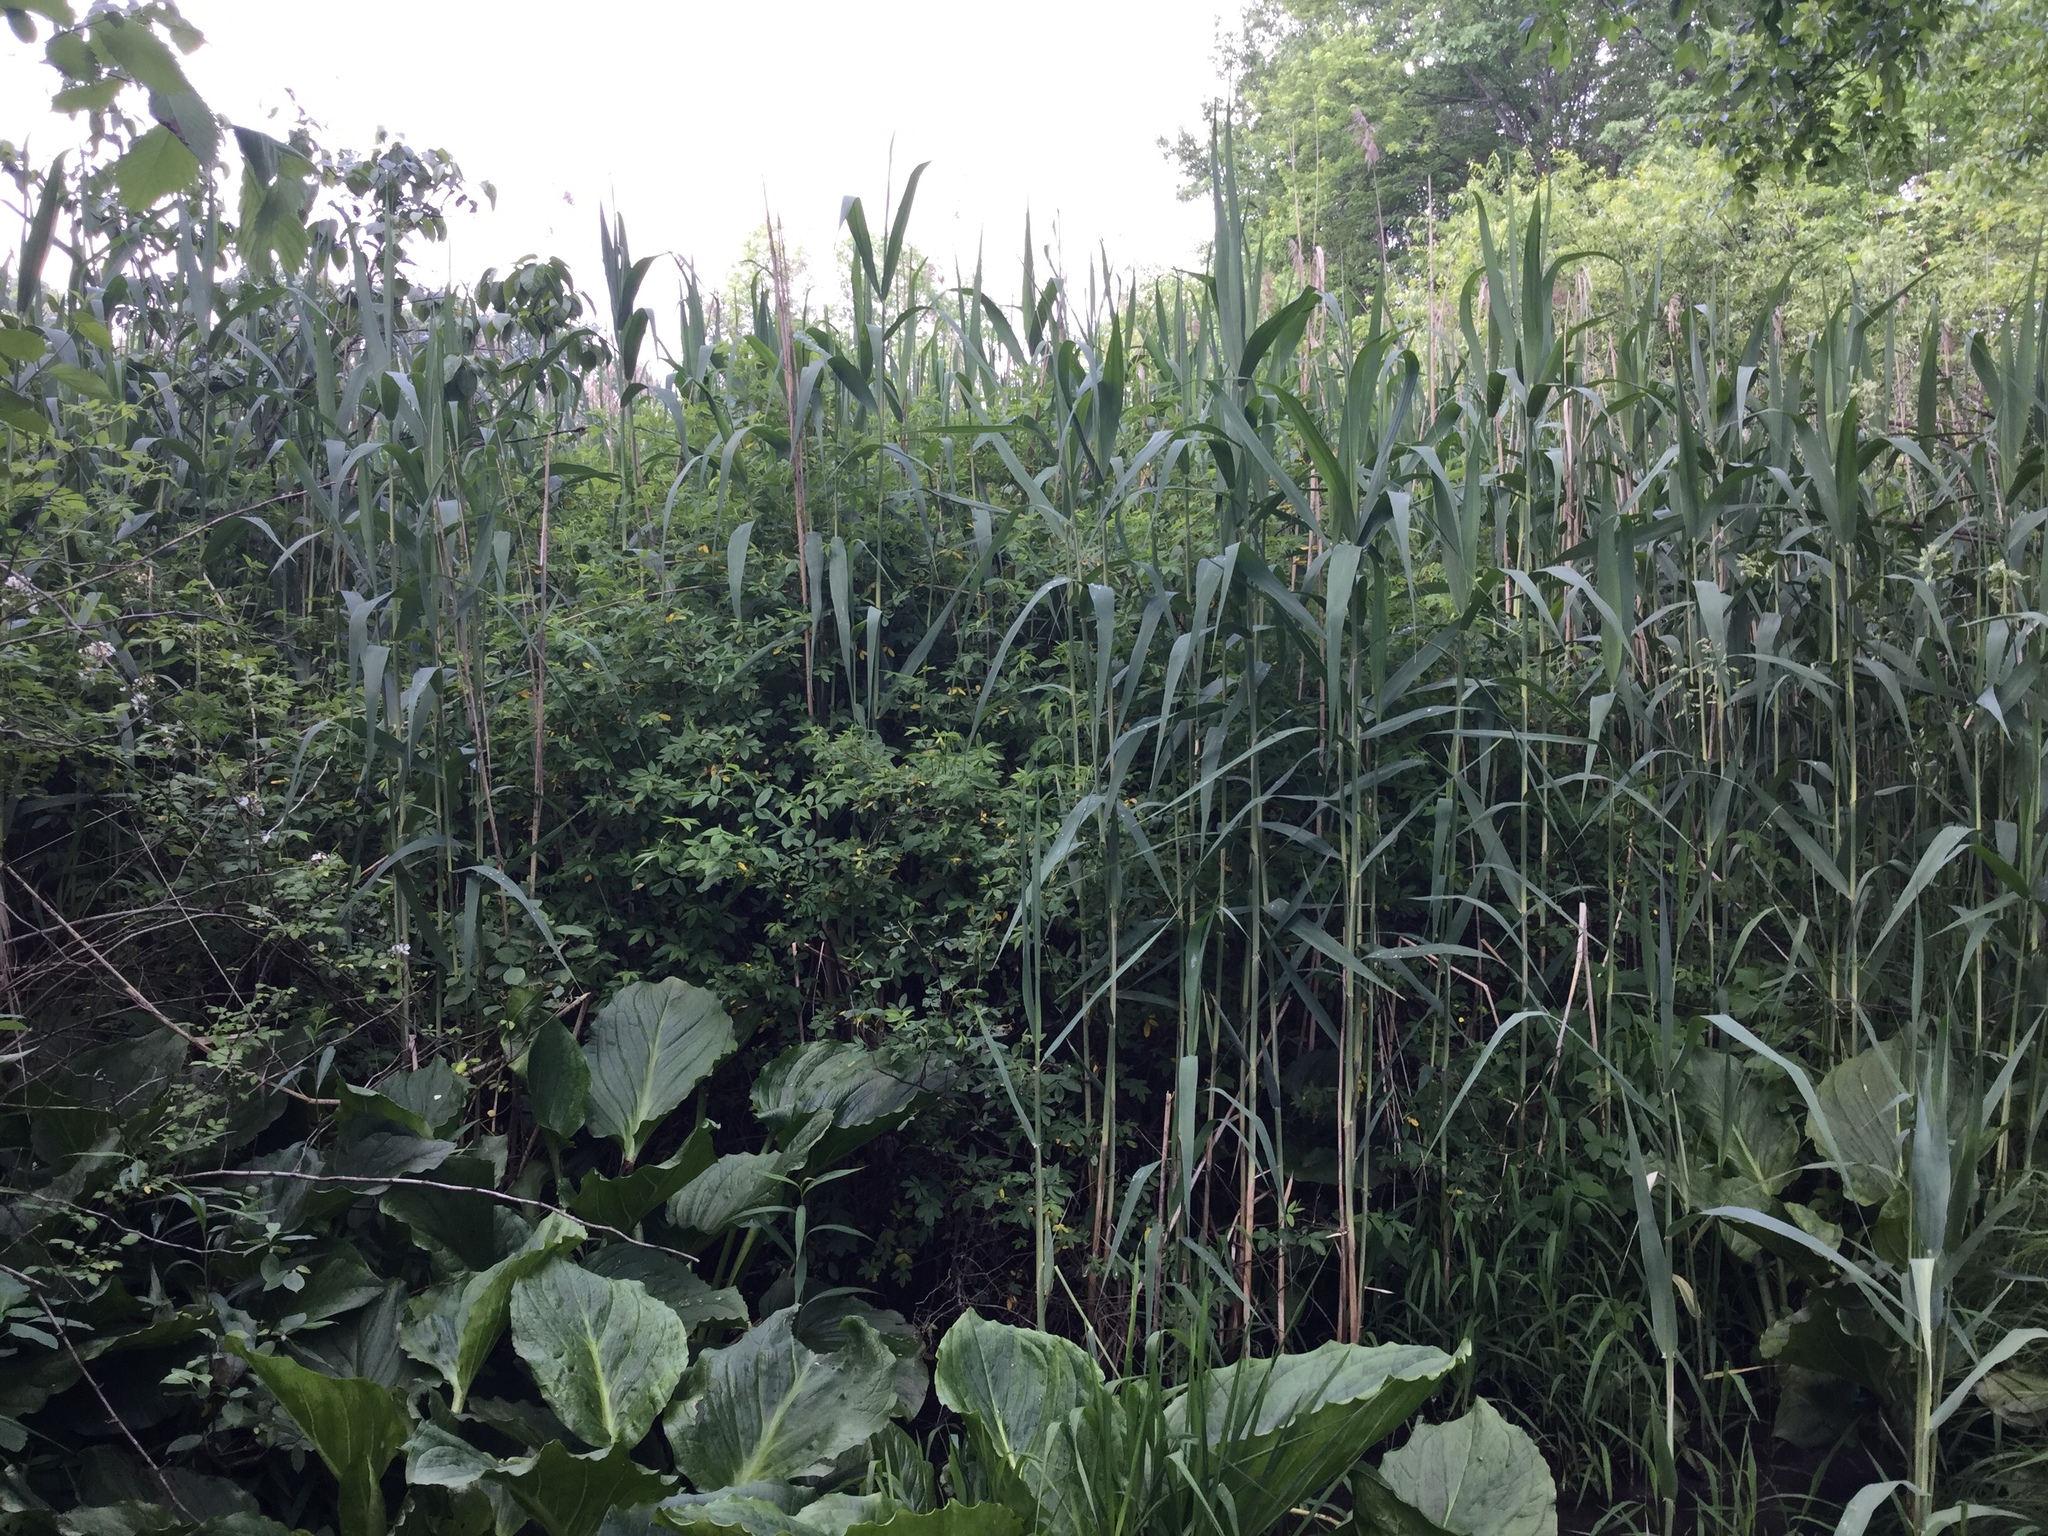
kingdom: Plantae
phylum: Tracheophyta
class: Liliopsida
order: Poales
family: Poaceae
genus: Phragmites
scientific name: Phragmites australis
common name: Common reed
